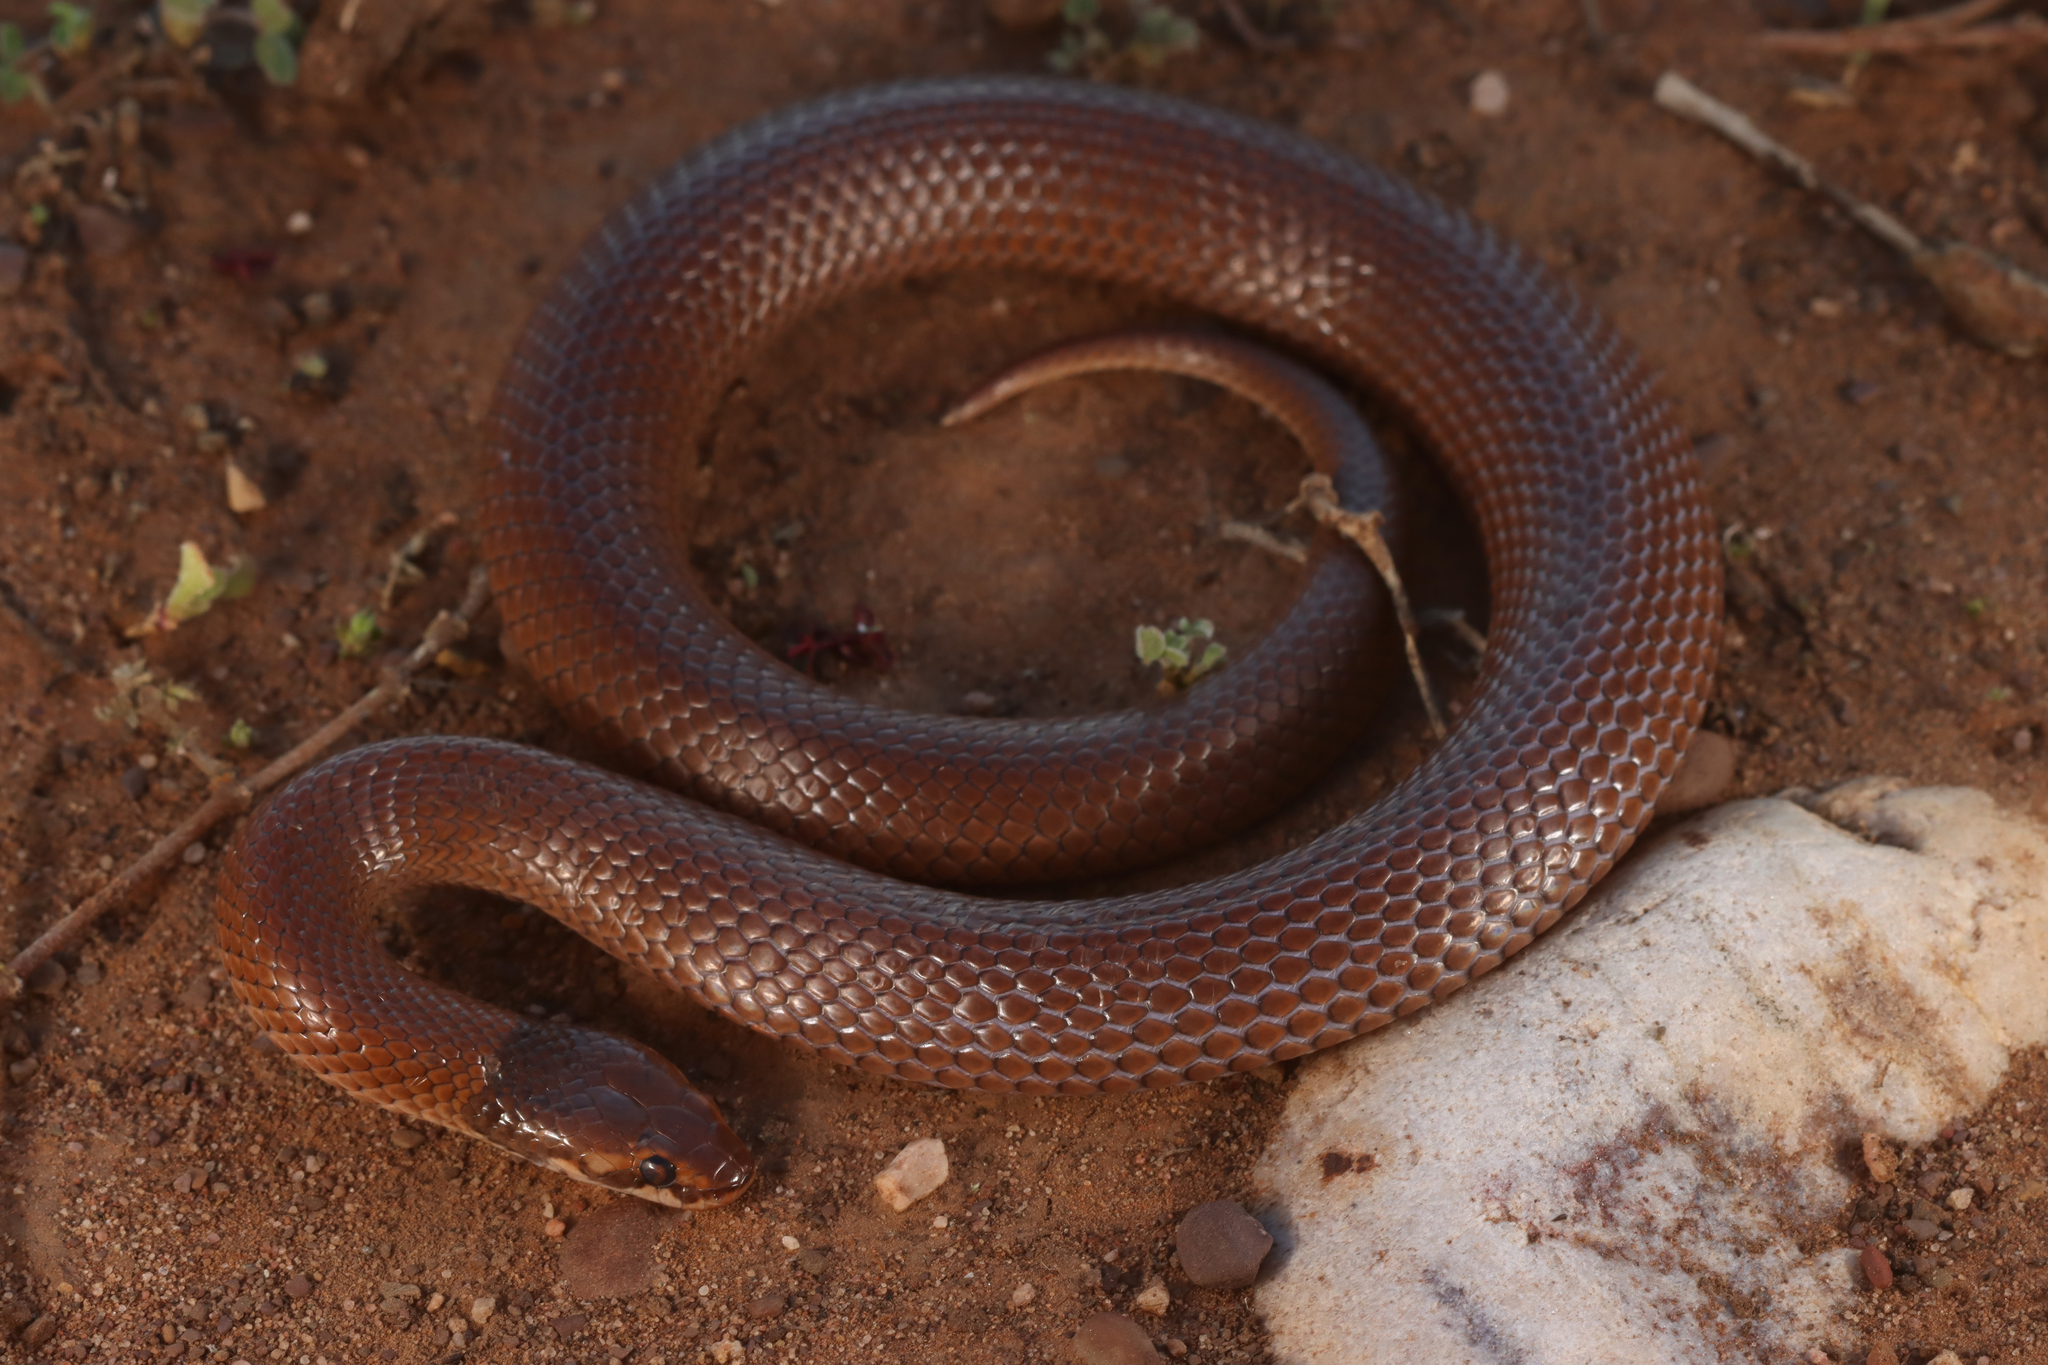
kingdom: Animalia
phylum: Chordata
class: Squamata
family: Elapidae
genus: Suta
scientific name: Suta suta
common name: Curl snake
